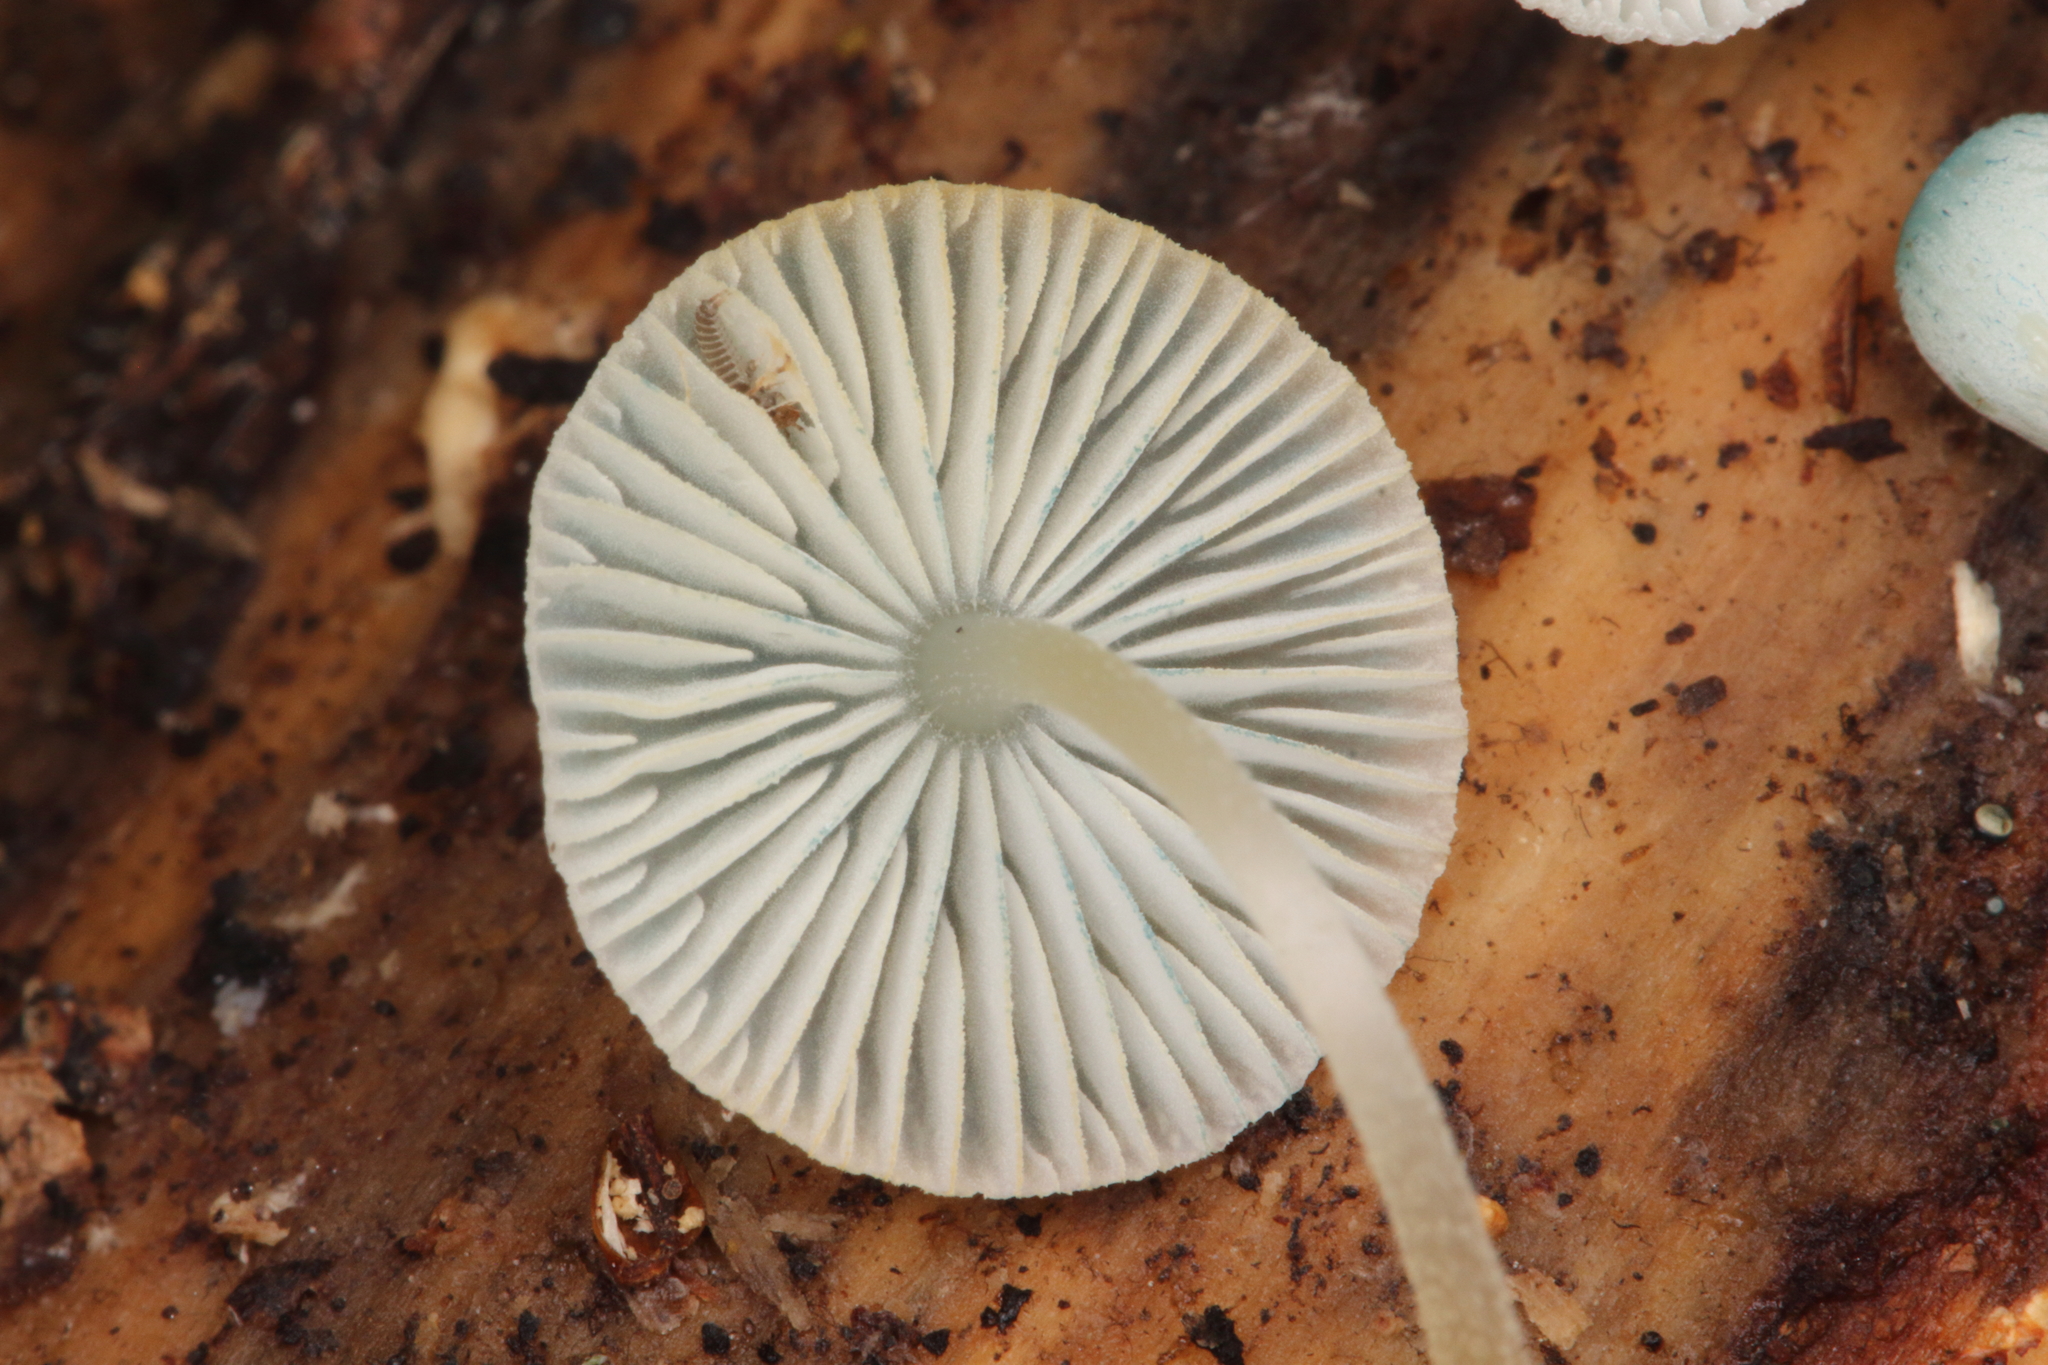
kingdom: Fungi
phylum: Basidiomycota
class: Agaricomycetes
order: Agaricales
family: Mycenaceae
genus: Mycena
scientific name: Mycena interrupta
